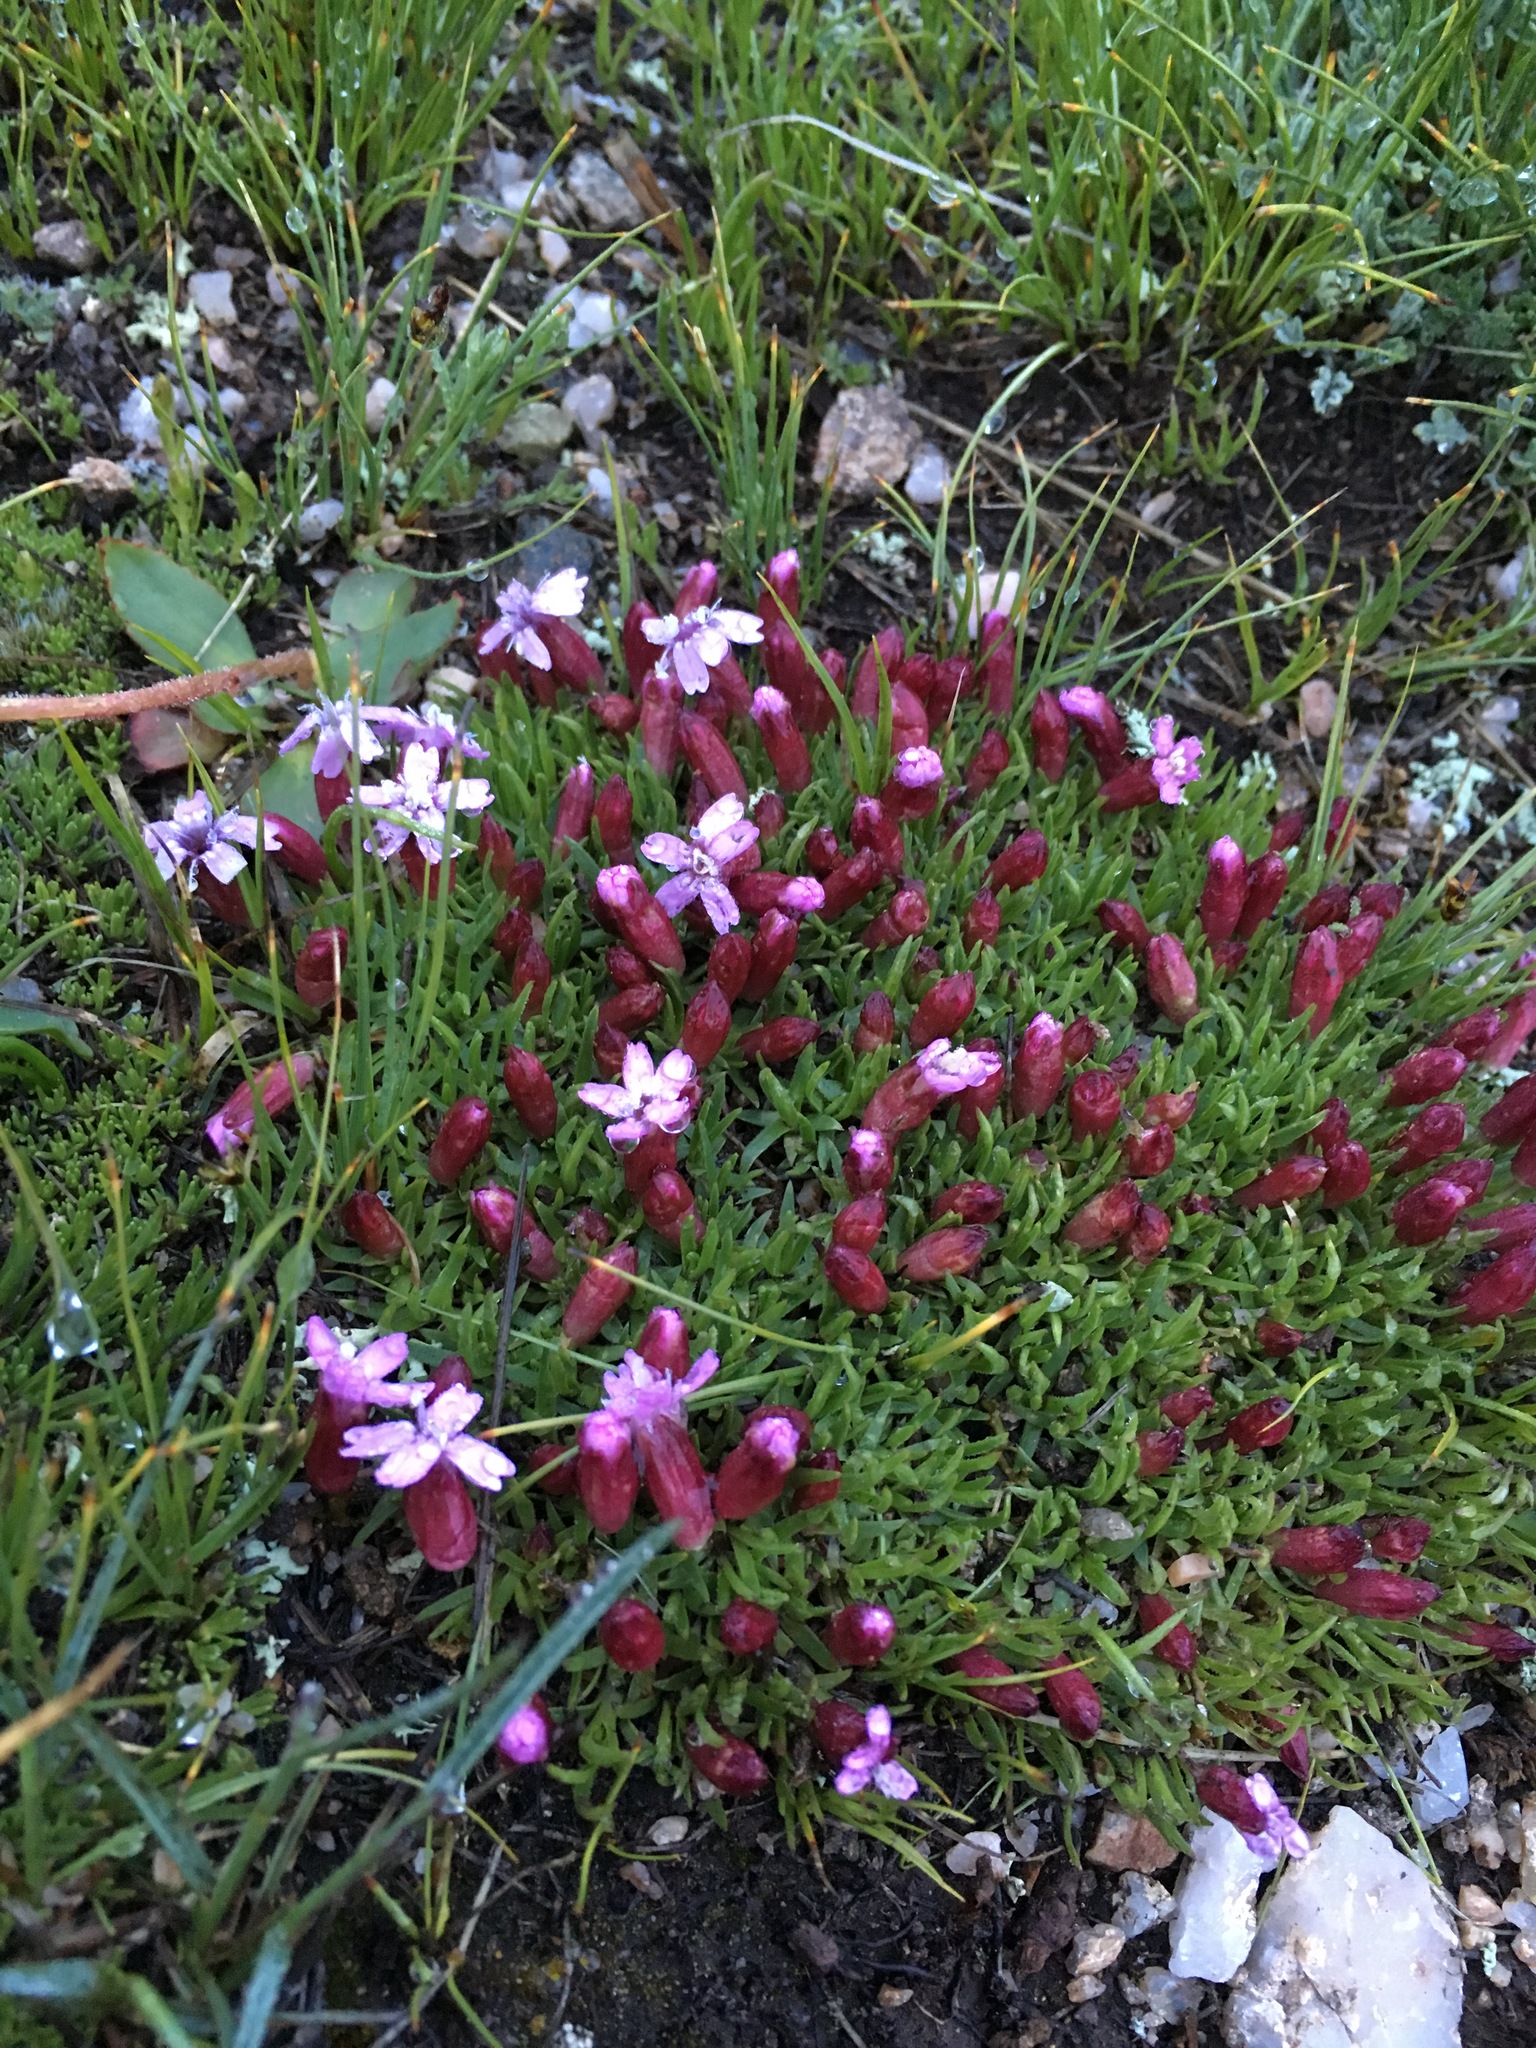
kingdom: Plantae
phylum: Tracheophyta
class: Magnoliopsida
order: Caryophyllales
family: Caryophyllaceae
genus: Silene
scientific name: Silene acaulis
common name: Moss campion
